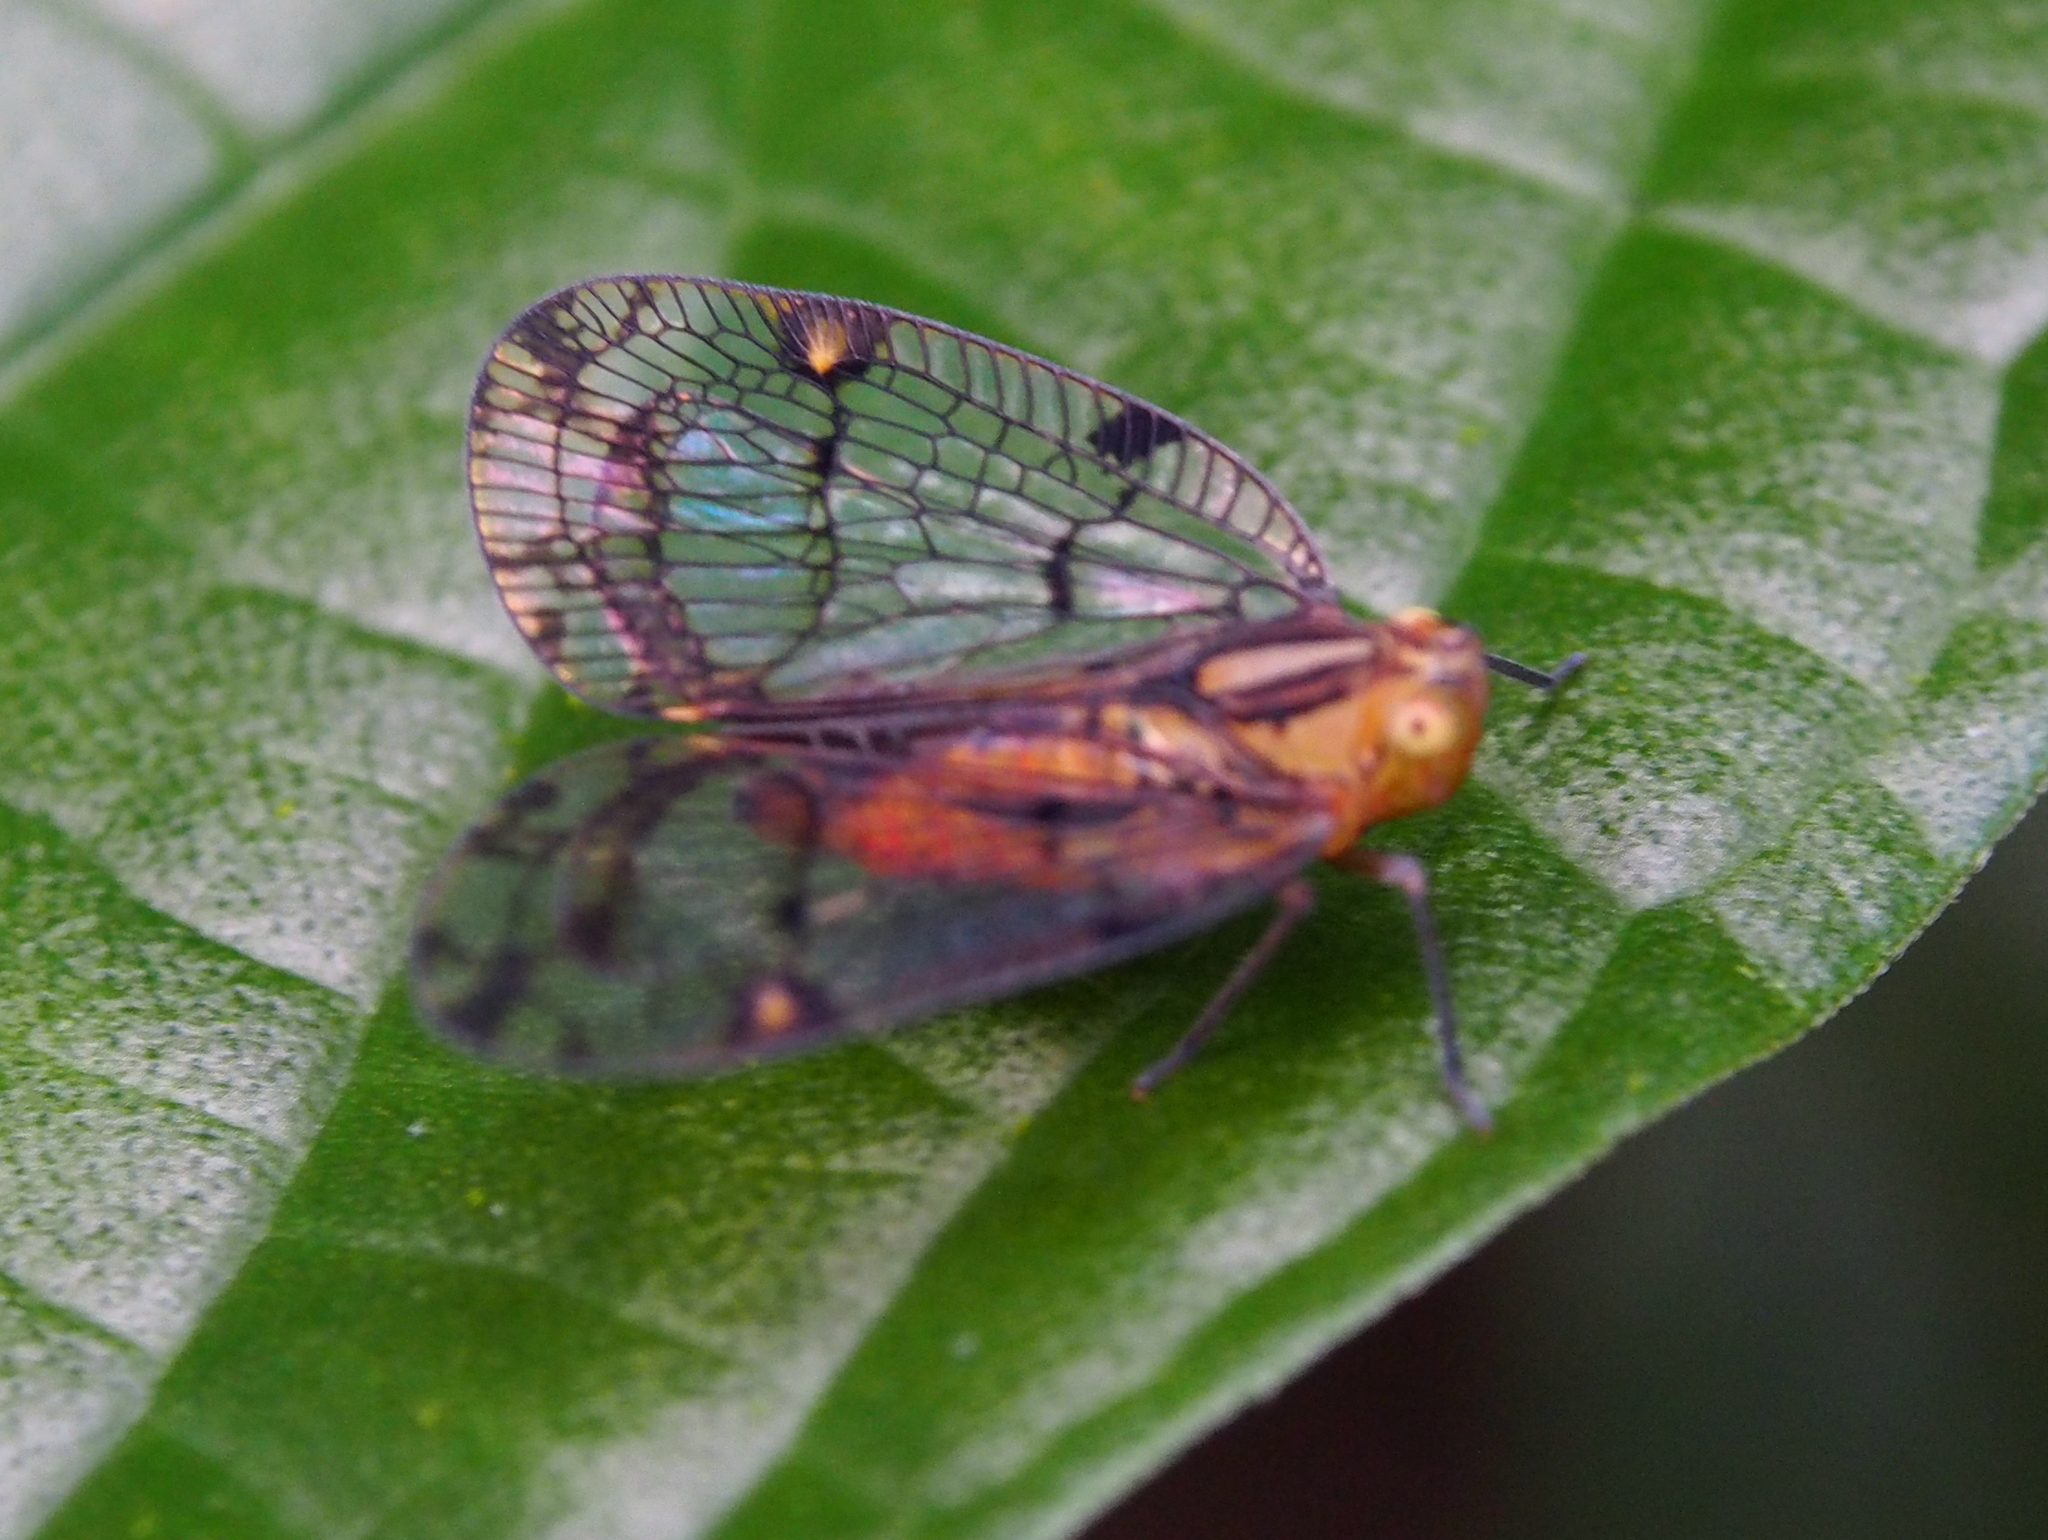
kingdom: Animalia
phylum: Arthropoda
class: Insecta
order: Hemiptera
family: Nogodinidae
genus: Biolleyana
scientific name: Biolleyana costalis
